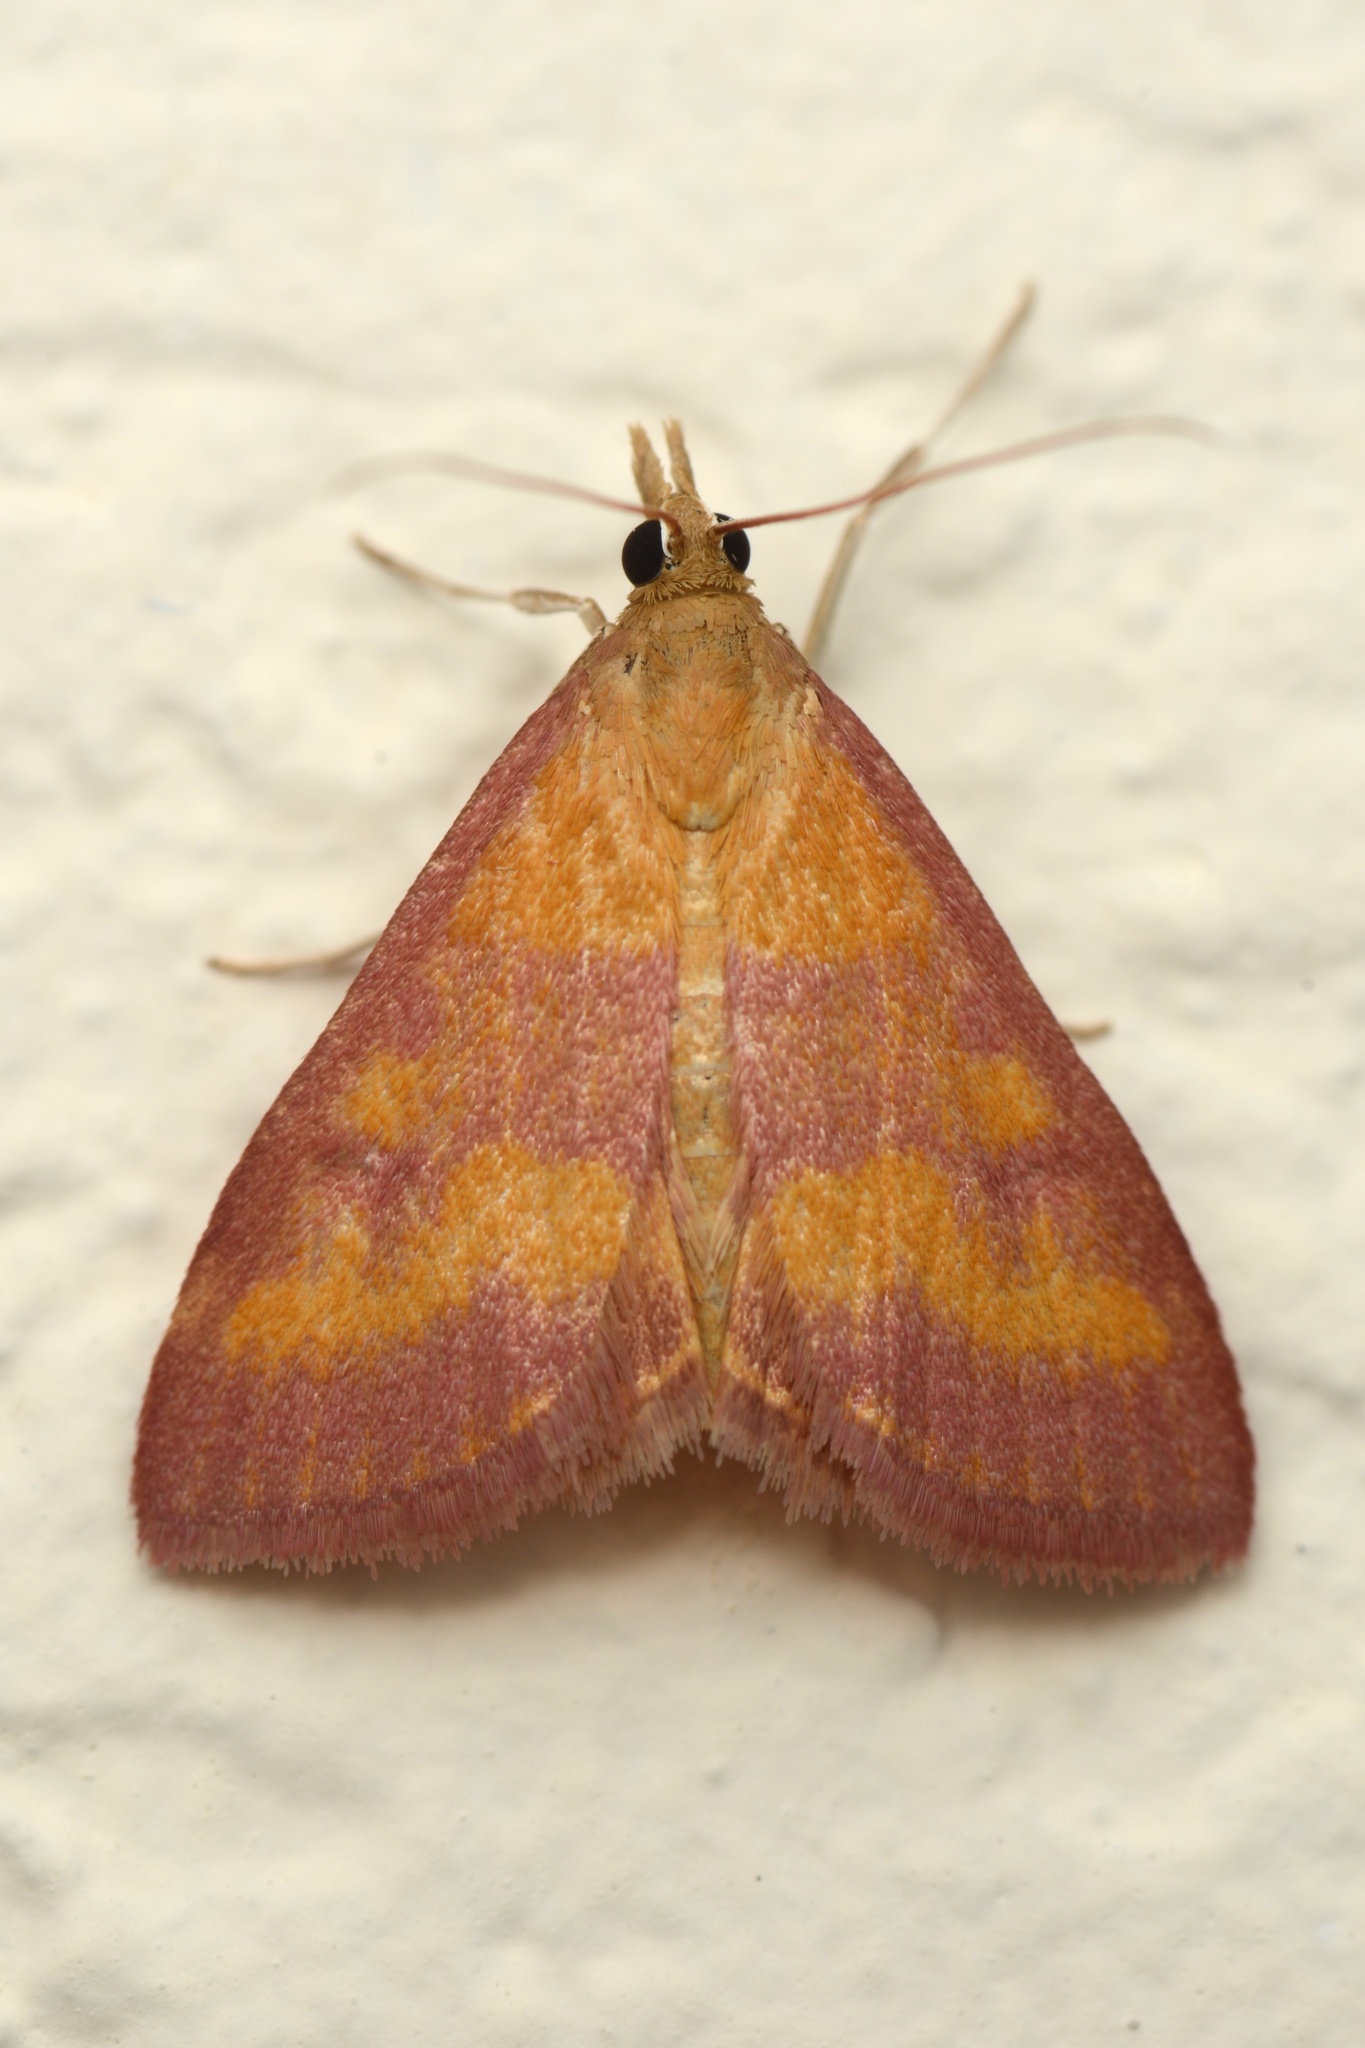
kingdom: Animalia
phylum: Arthropoda
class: Insecta
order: Lepidoptera
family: Crambidae
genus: Pyrausta
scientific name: Pyrausta laticlavia
